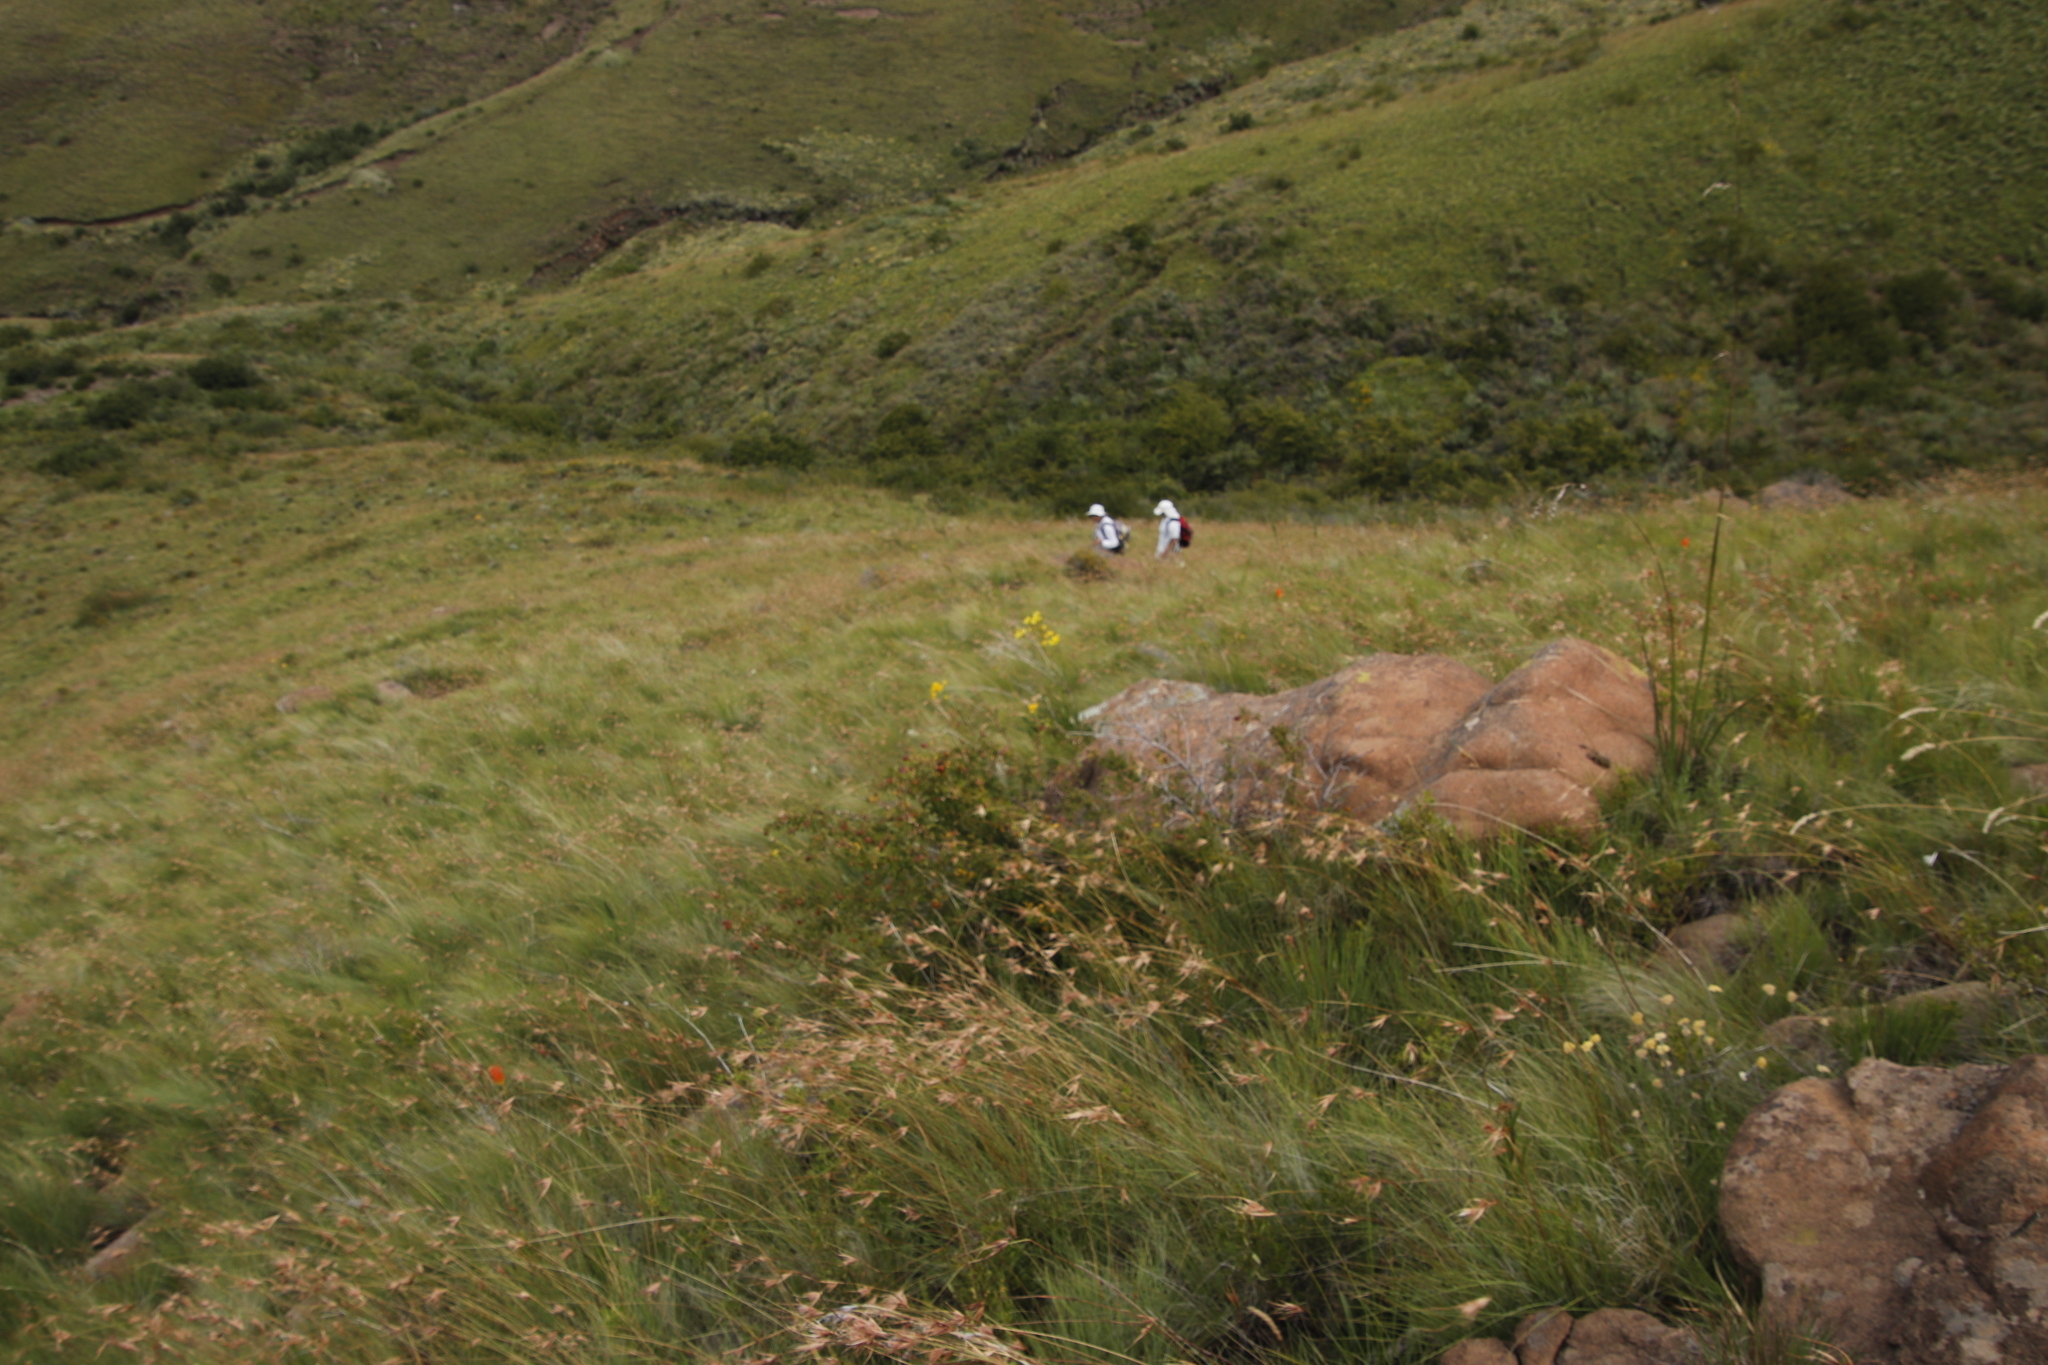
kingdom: Plantae
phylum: Tracheophyta
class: Liliopsida
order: Poales
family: Poaceae
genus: Themeda
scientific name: Themeda triandra
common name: Kangaroo grass
